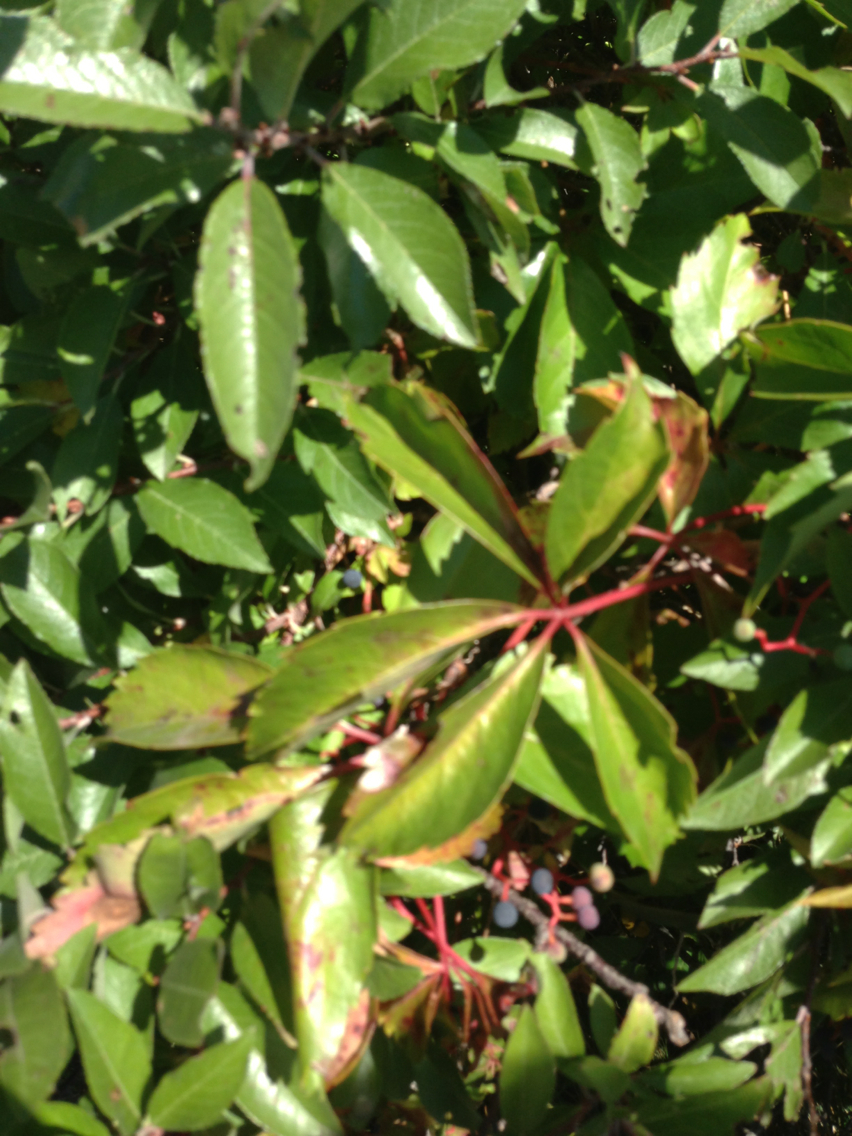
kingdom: Plantae
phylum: Tracheophyta
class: Magnoliopsida
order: Vitales
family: Vitaceae
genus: Parthenocissus
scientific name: Parthenocissus quinquefolia
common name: Virginia-creeper
